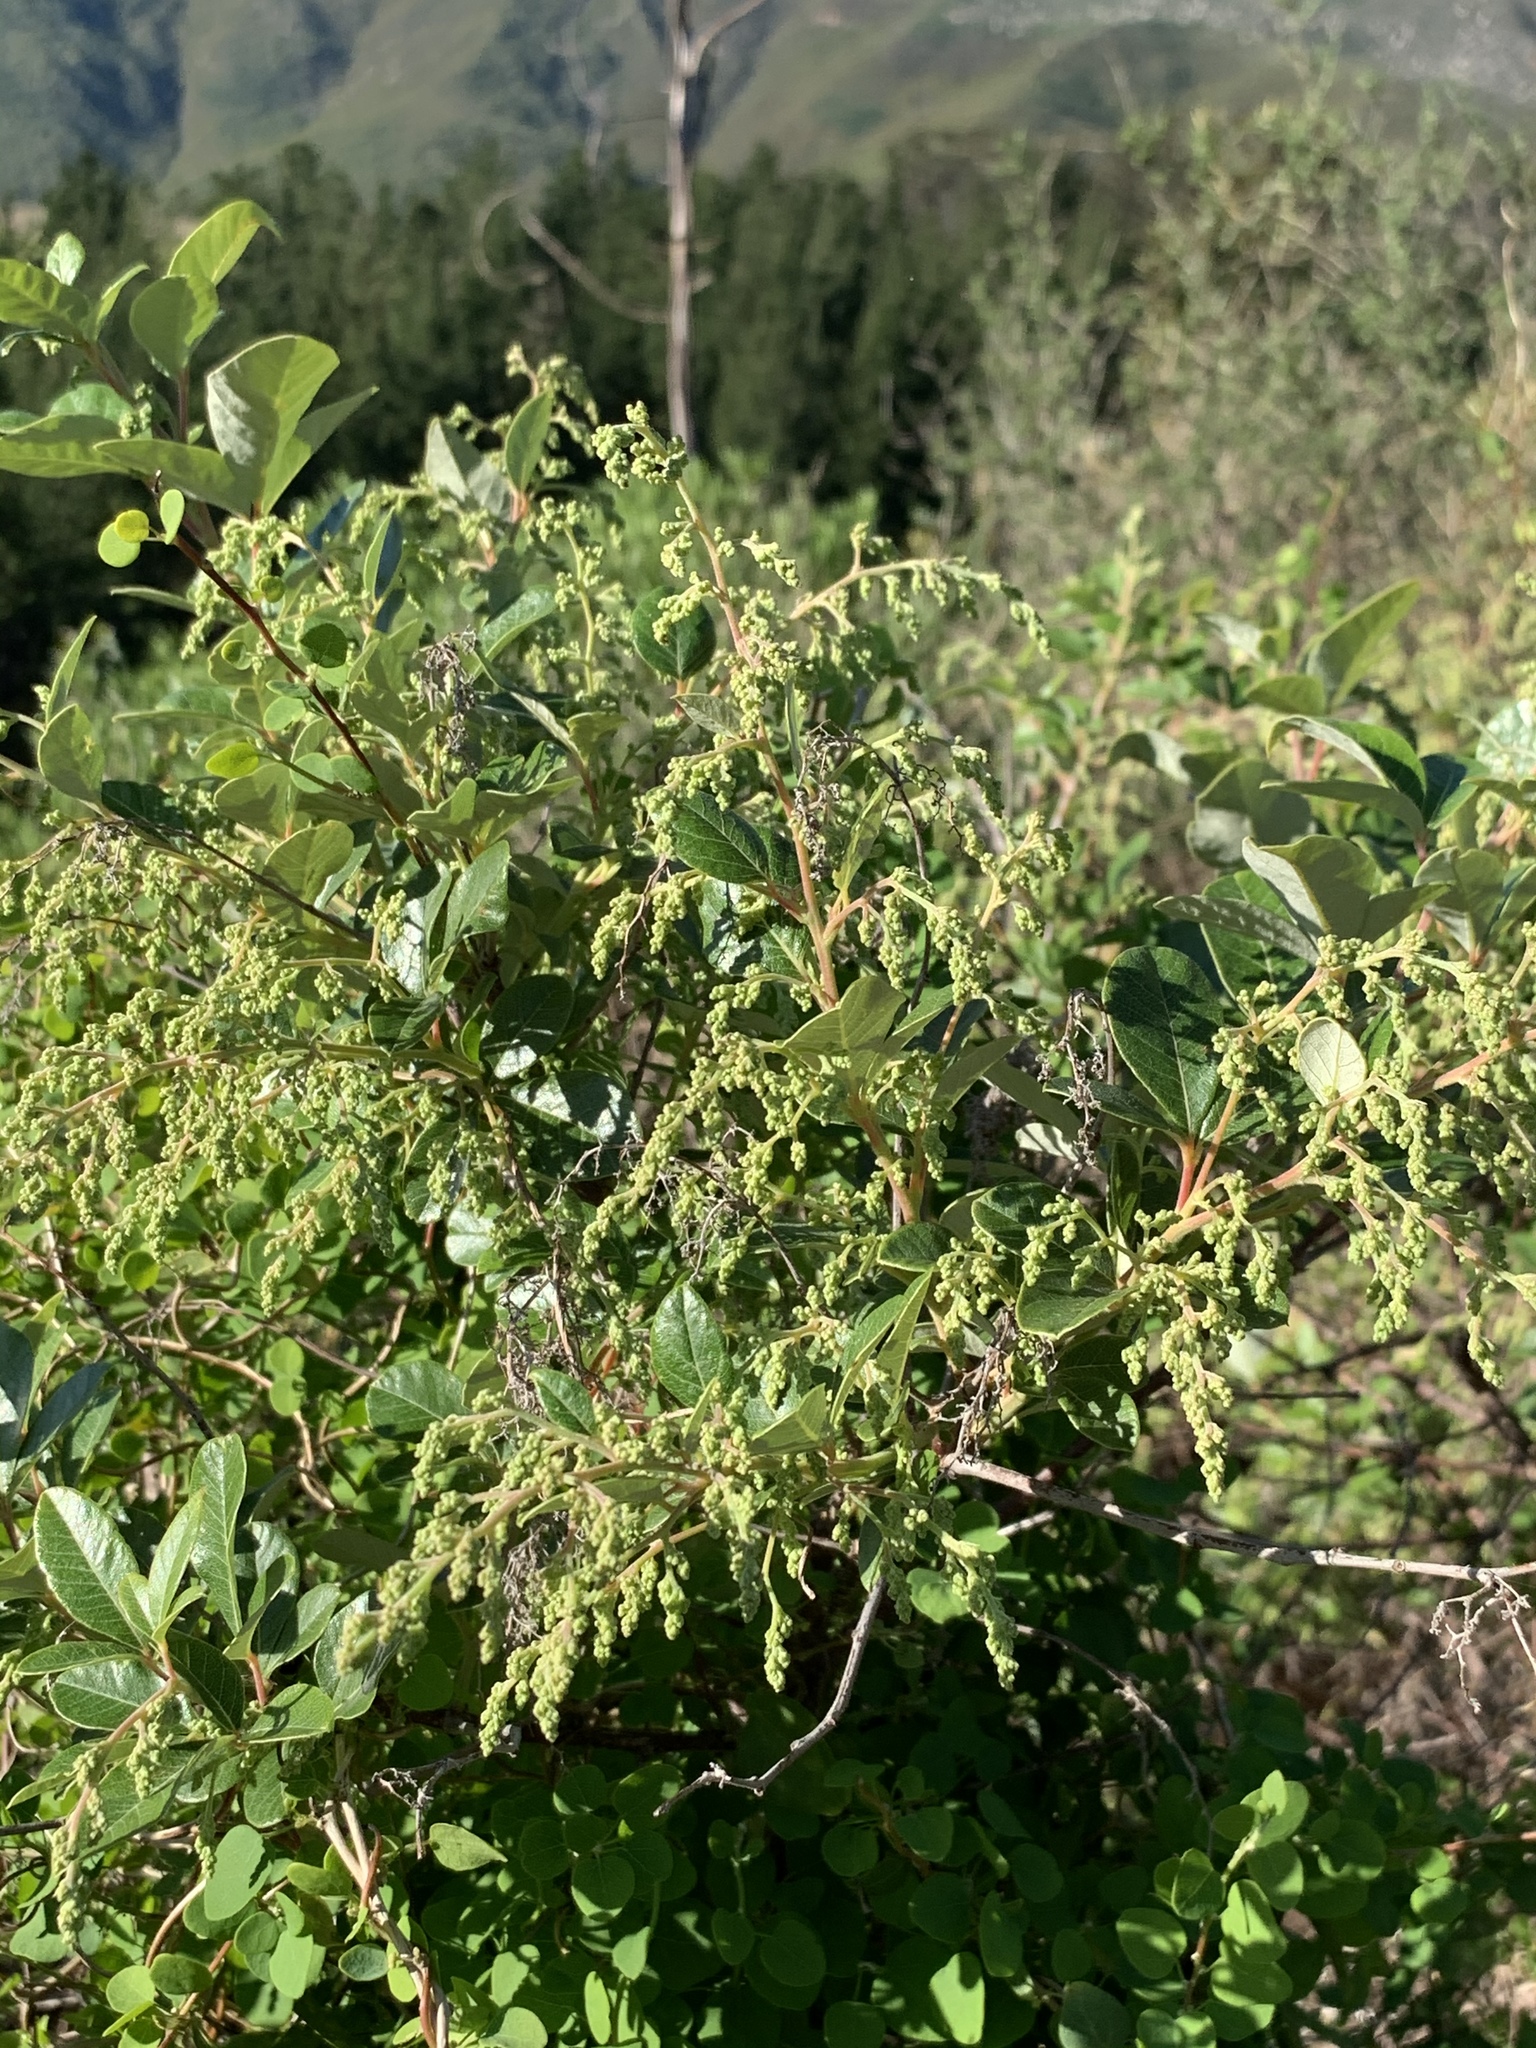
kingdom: Plantae
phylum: Tracheophyta
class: Magnoliopsida
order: Sapindales
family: Anacardiaceae
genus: Searsia
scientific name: Searsia tomentosa
